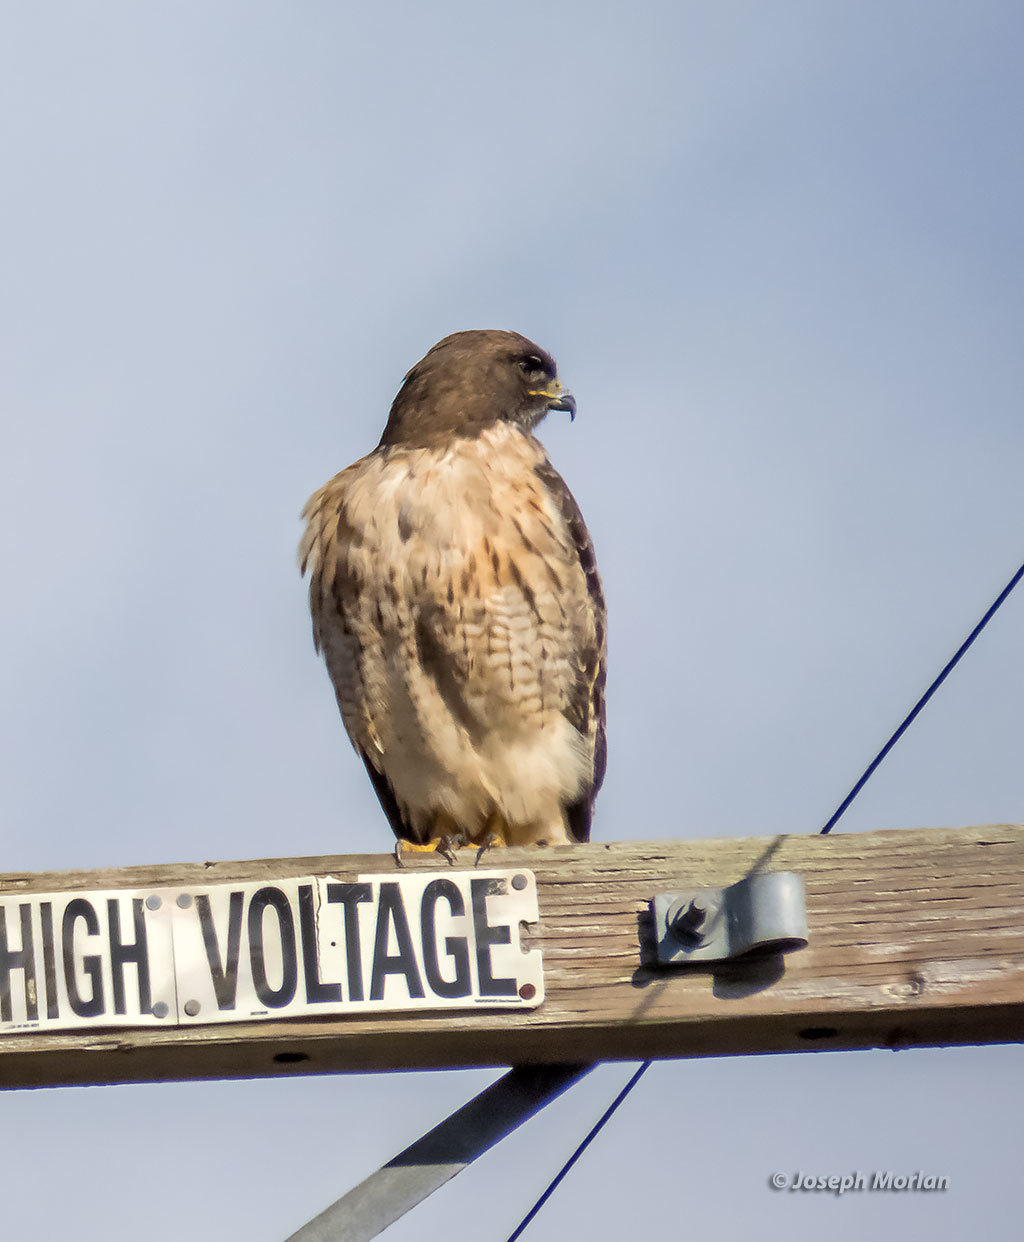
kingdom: Animalia
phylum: Chordata
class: Aves
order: Accipitriformes
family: Accipitridae
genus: Buteo
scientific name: Buteo jamaicensis
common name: Red-tailed hawk
